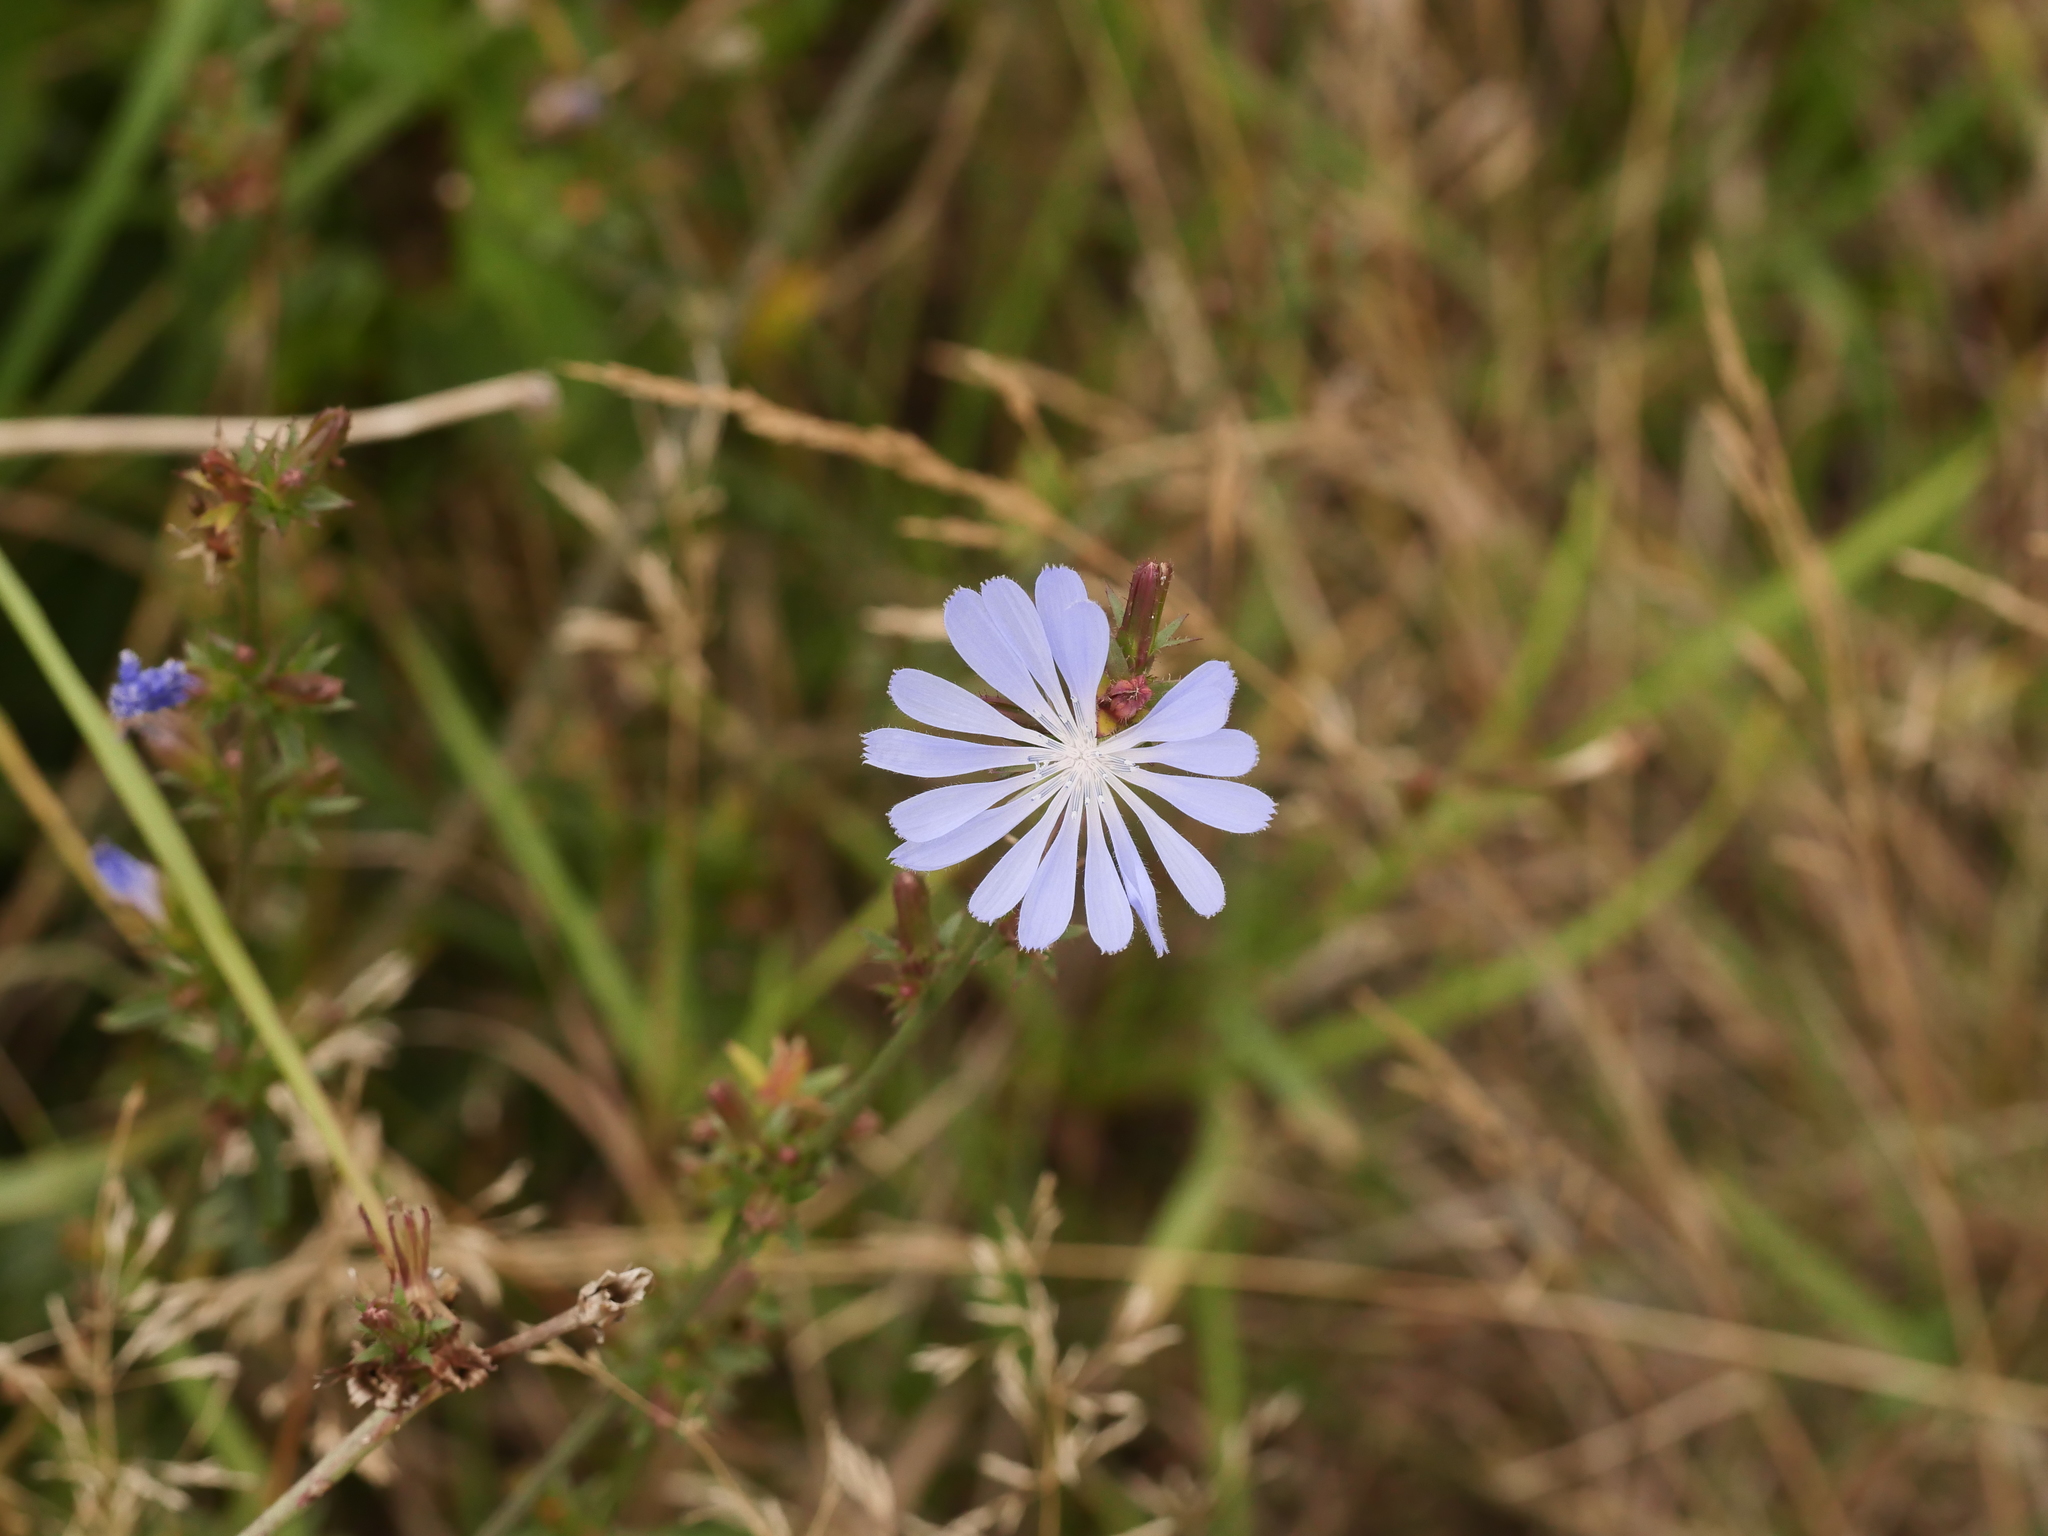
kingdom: Plantae
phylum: Tracheophyta
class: Magnoliopsida
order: Asterales
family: Asteraceae
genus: Cichorium
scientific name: Cichorium intybus
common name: Chicory
